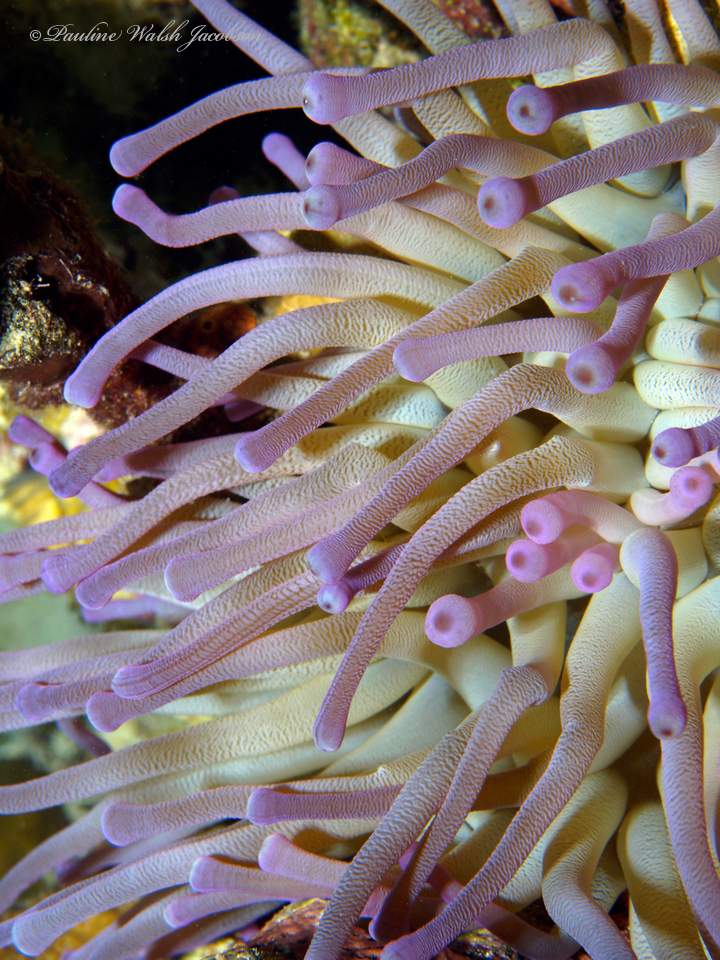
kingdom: Animalia
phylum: Cnidaria
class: Anthozoa
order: Actiniaria
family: Actiniidae
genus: Condylactis
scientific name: Condylactis gigantea
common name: Giant caribbean anemone
